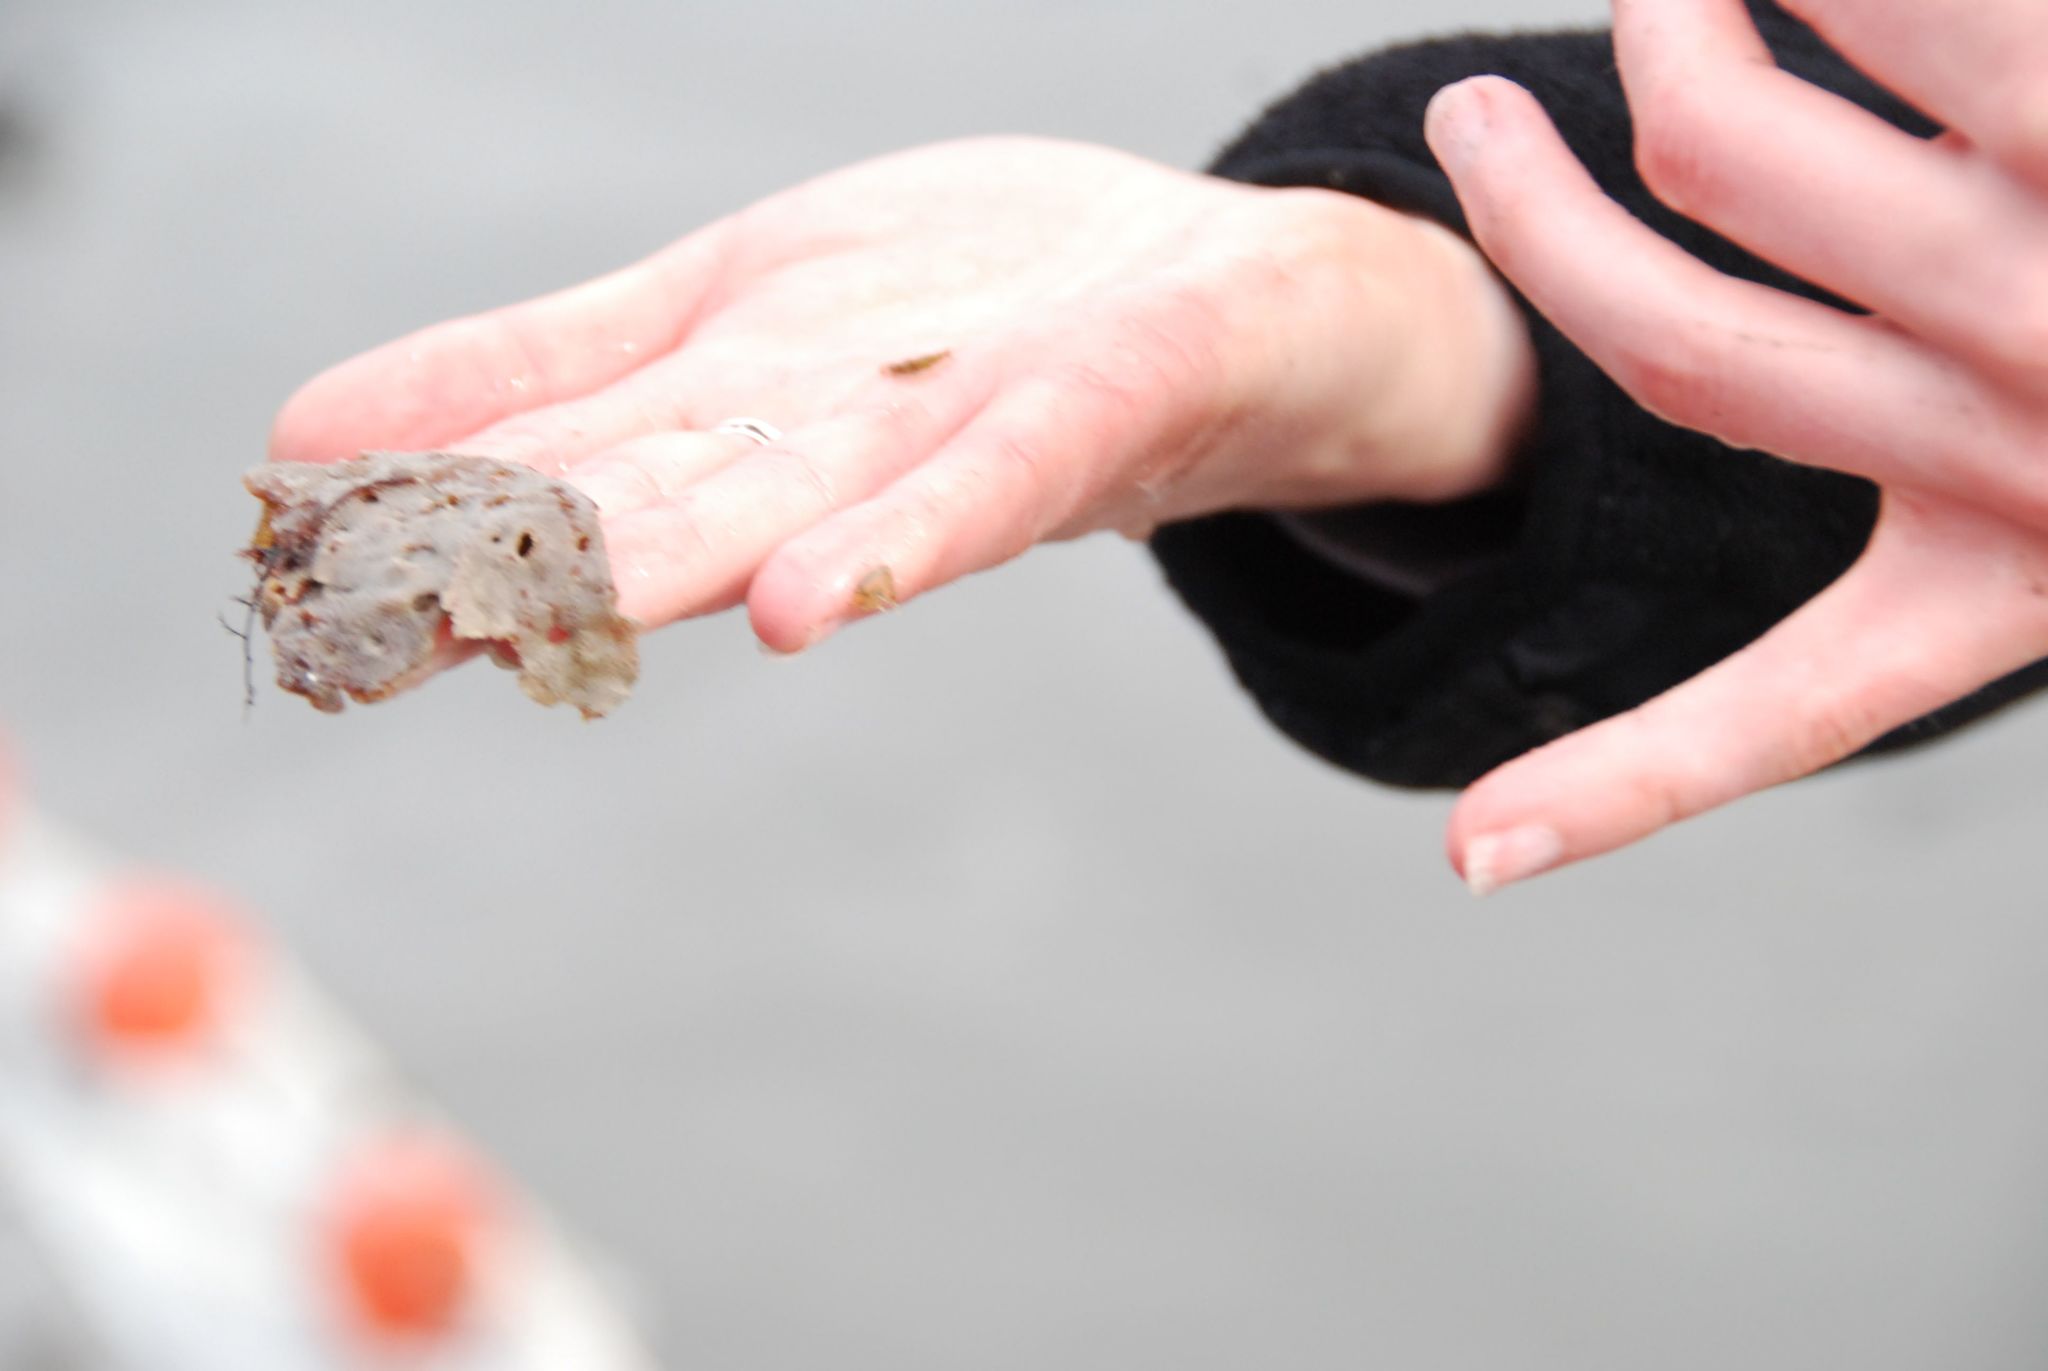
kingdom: Animalia
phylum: Bryozoa
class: Gymnolaemata
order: Cheilostomatida
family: Membraniporidae
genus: Membranipora
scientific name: Membranipora membranacea
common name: Sea mat
